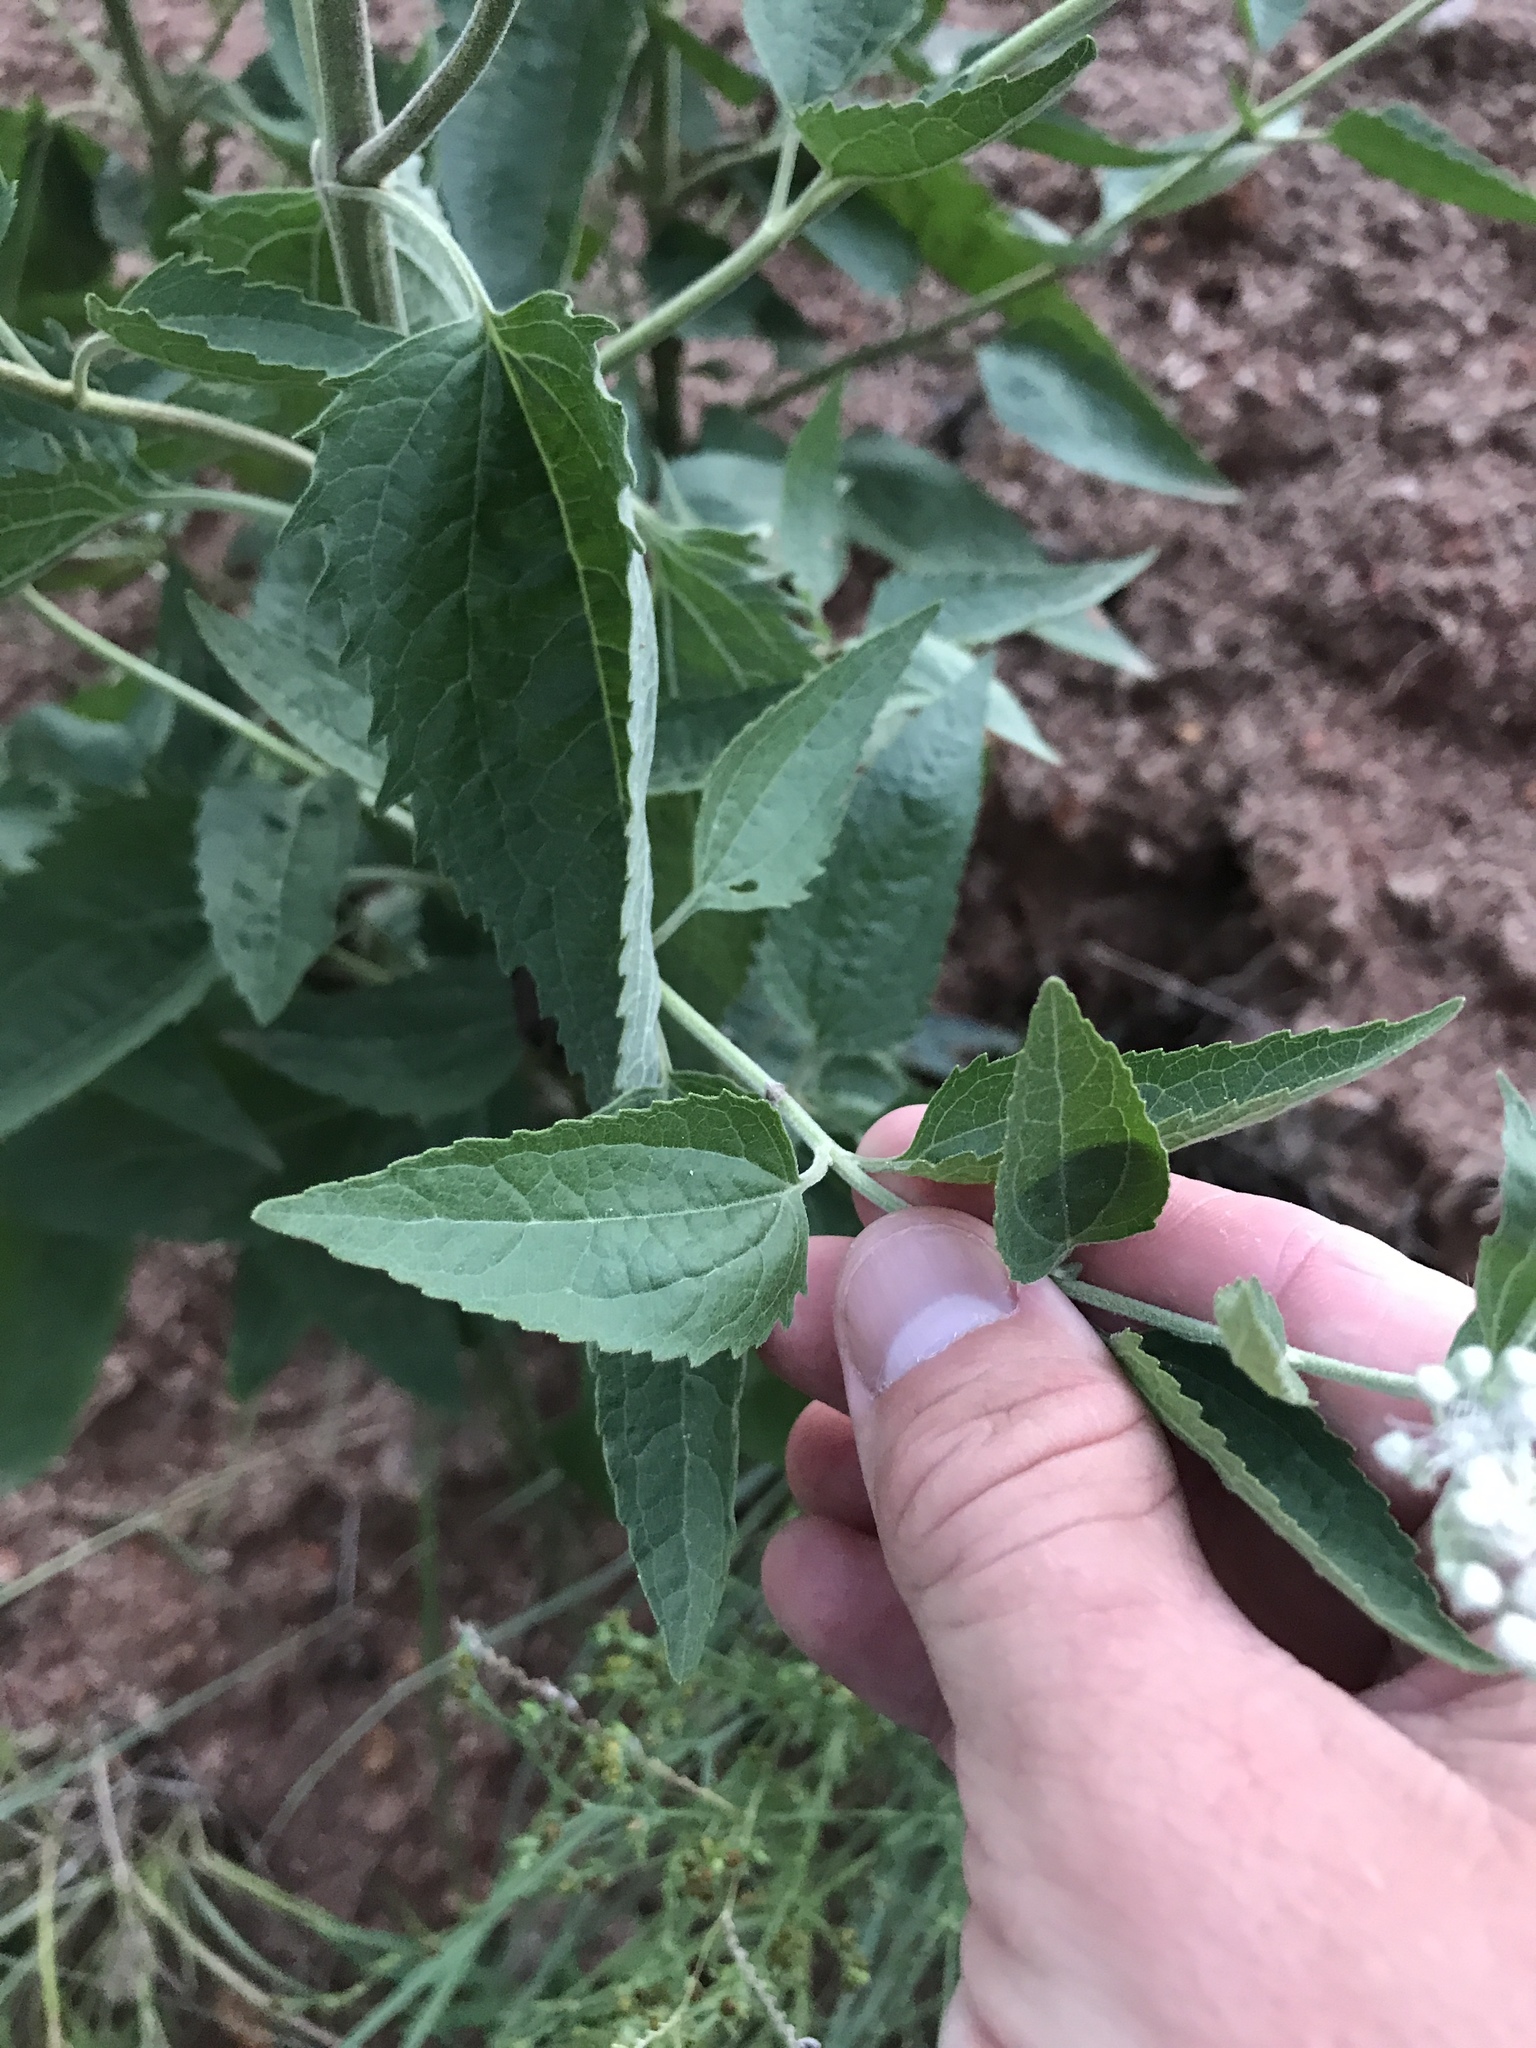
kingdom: Plantae
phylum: Tracheophyta
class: Magnoliopsida
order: Asterales
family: Asteraceae
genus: Eupatorium
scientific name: Eupatorium serotinum
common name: Late boneset
